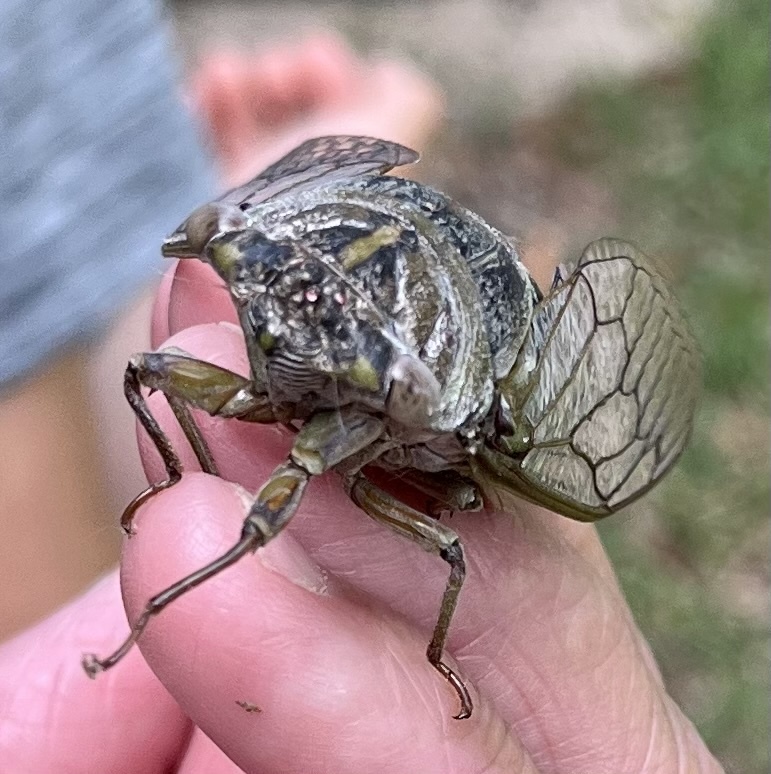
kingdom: Animalia
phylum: Arthropoda
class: Insecta
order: Hemiptera
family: Cicadidae
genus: Diceroprocta
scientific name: Diceroprocta grossa
